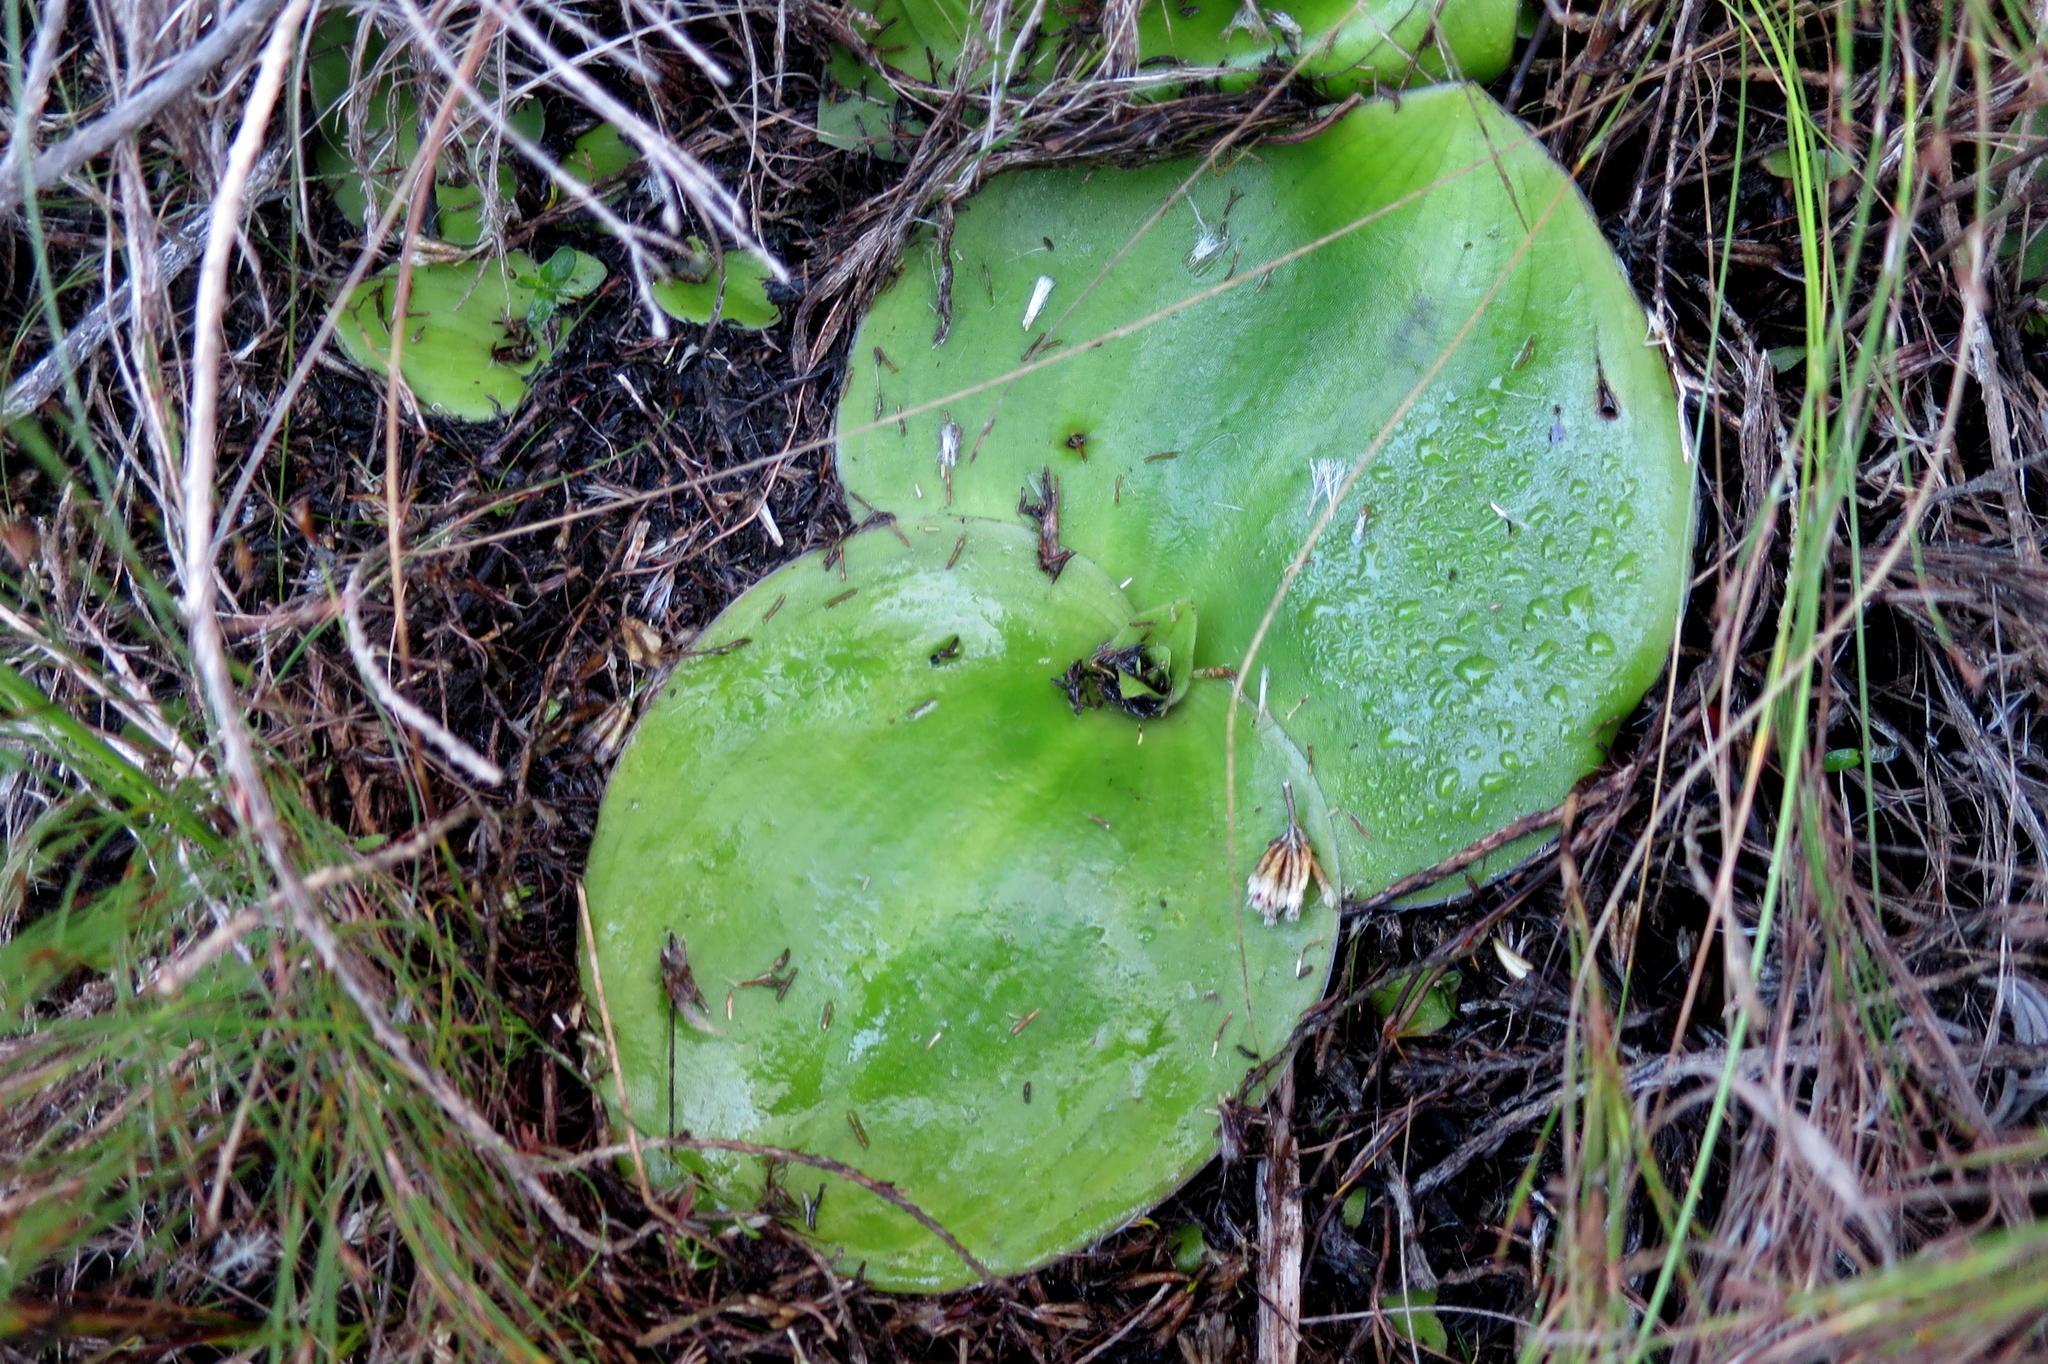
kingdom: Plantae
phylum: Tracheophyta
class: Liliopsida
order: Asparagales
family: Orchidaceae
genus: Satyrium
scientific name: Satyrium princeps
